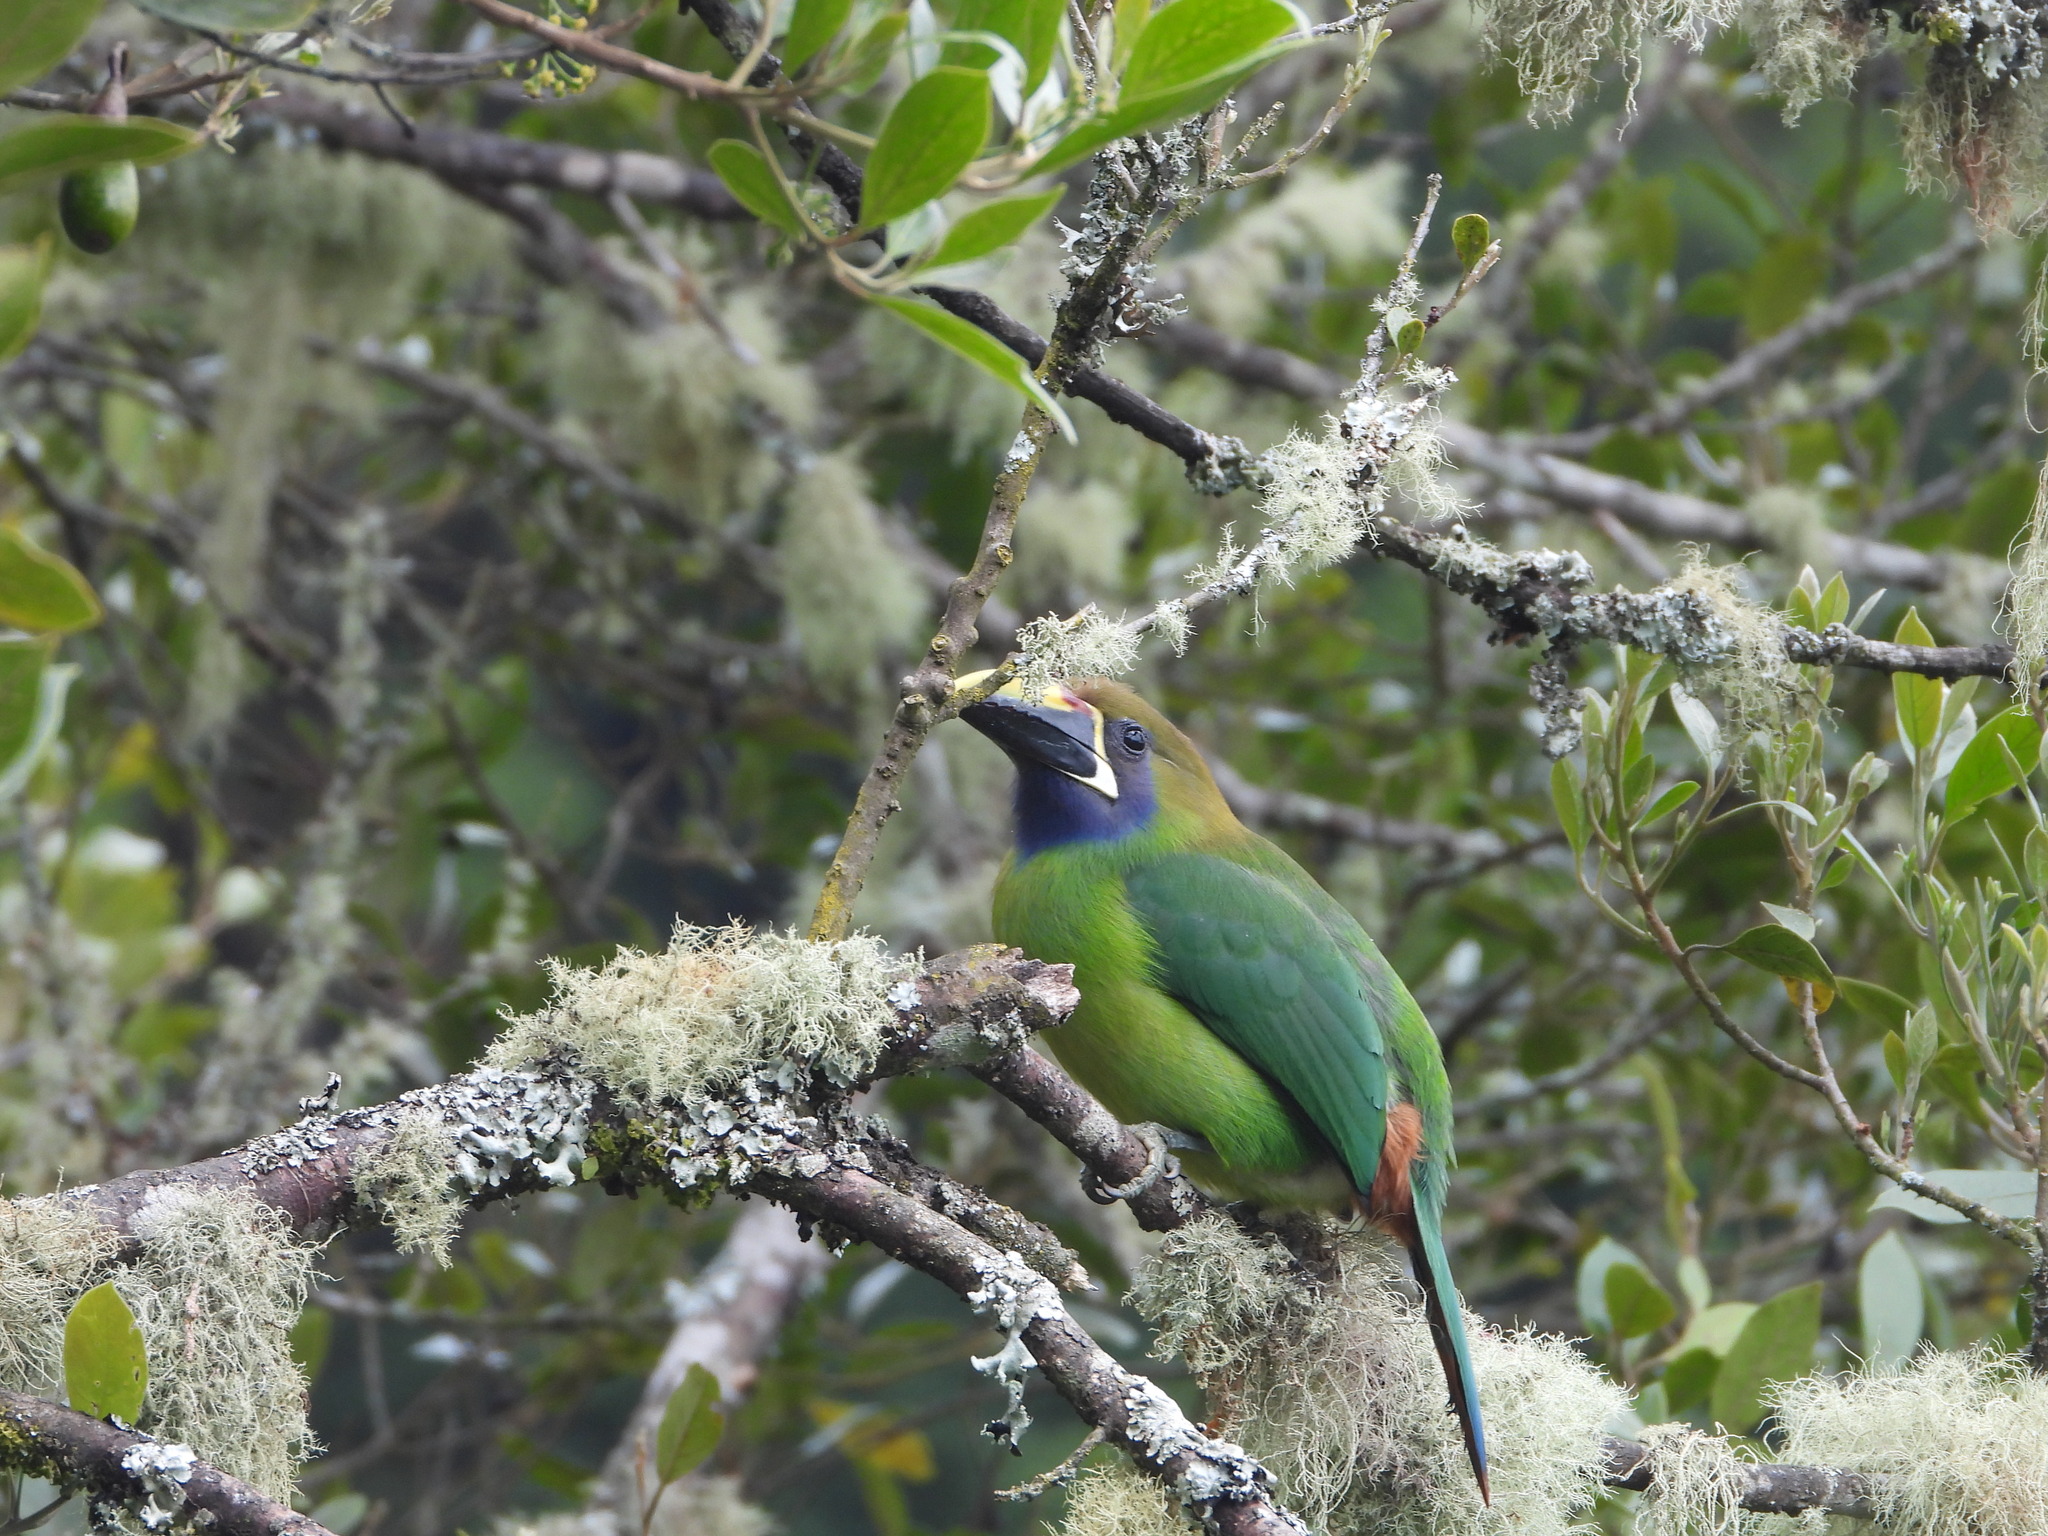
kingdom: Animalia
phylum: Chordata
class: Aves
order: Piciformes
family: Ramphastidae
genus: Aulacorhynchus
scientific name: Aulacorhynchus prasinus
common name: Emerald toucanet
